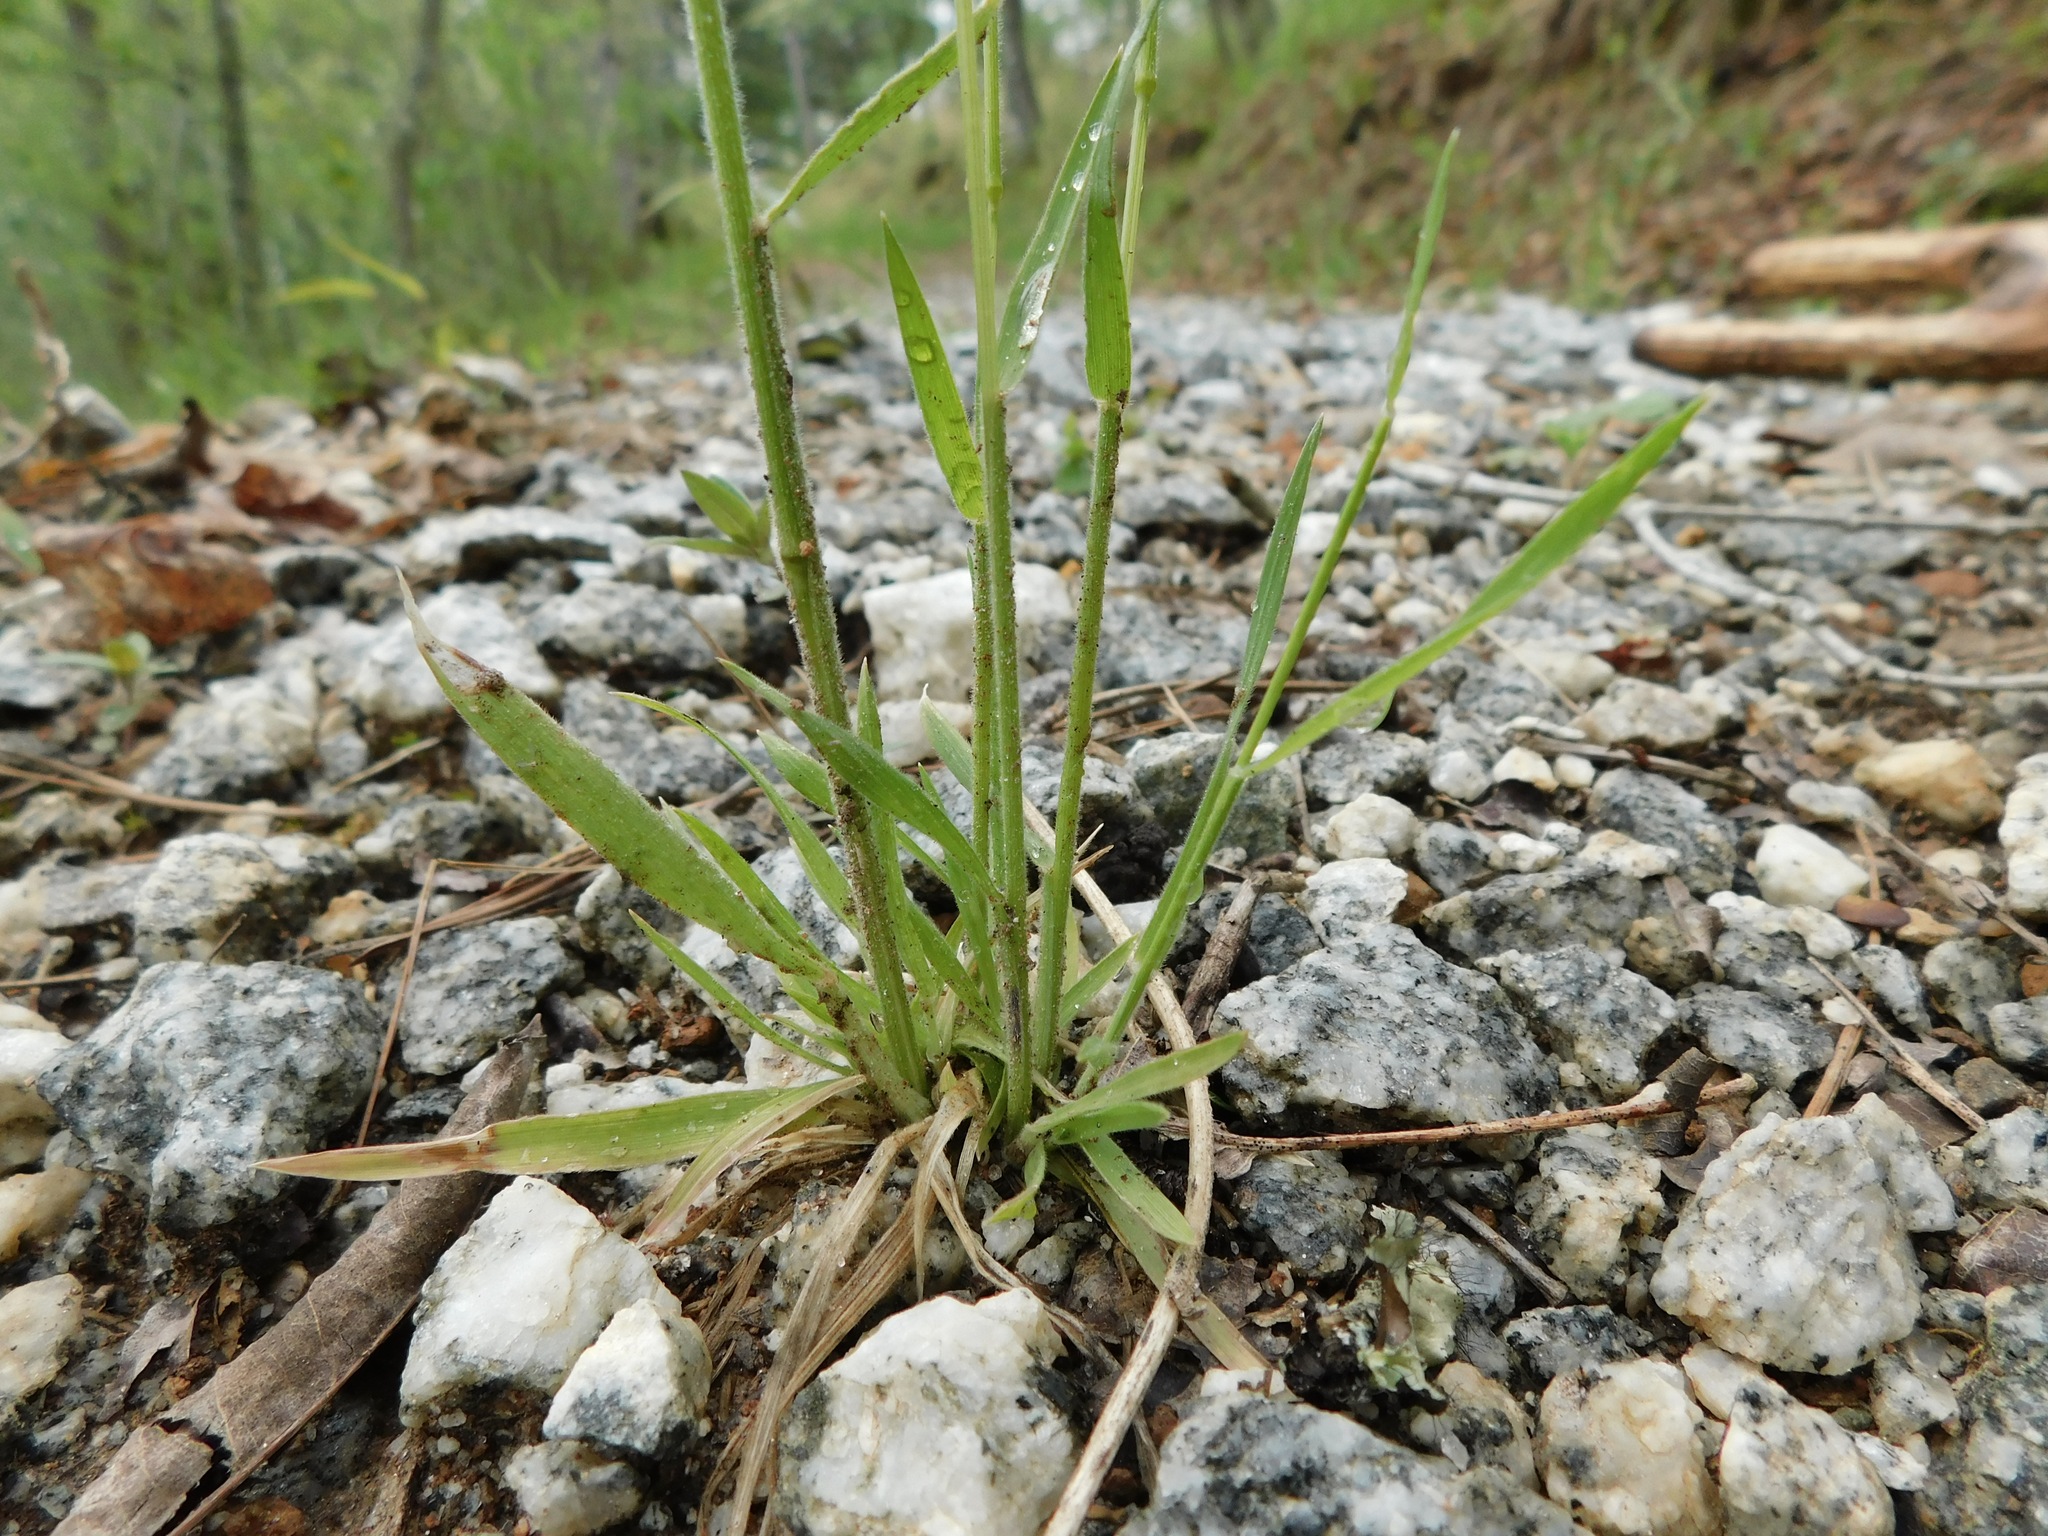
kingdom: Plantae
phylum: Tracheophyta
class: Liliopsida
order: Poales
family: Poaceae
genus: Sphenopholis
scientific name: Sphenopholis nitida
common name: Shiny wedgegrass
